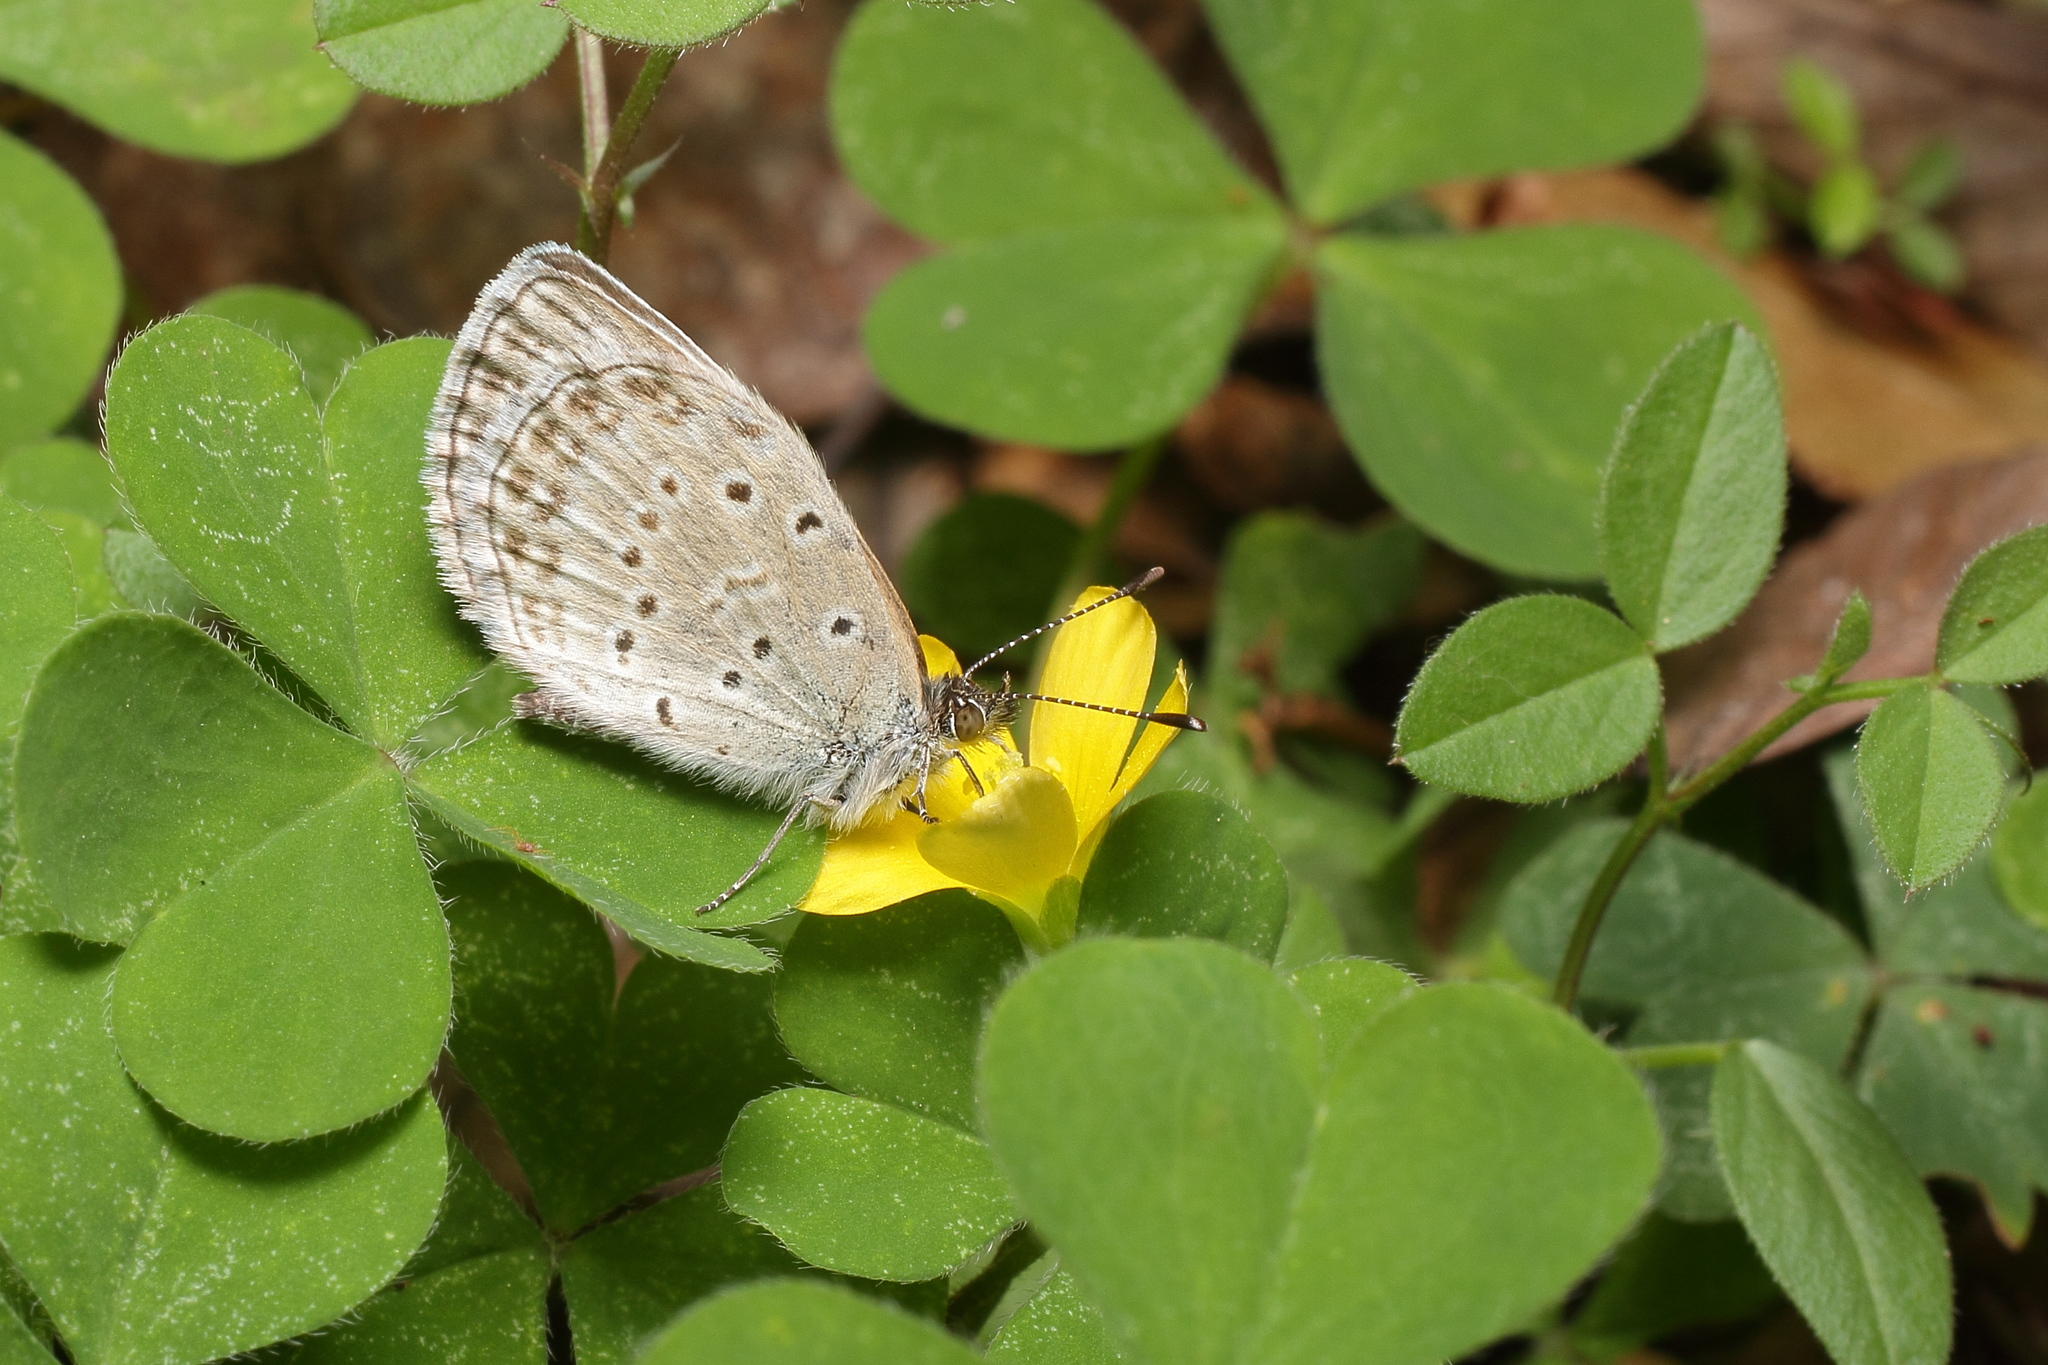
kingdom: Animalia
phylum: Arthropoda
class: Insecta
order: Lepidoptera
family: Lycaenidae
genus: Pseudozizeeria
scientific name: Pseudozizeeria maha
